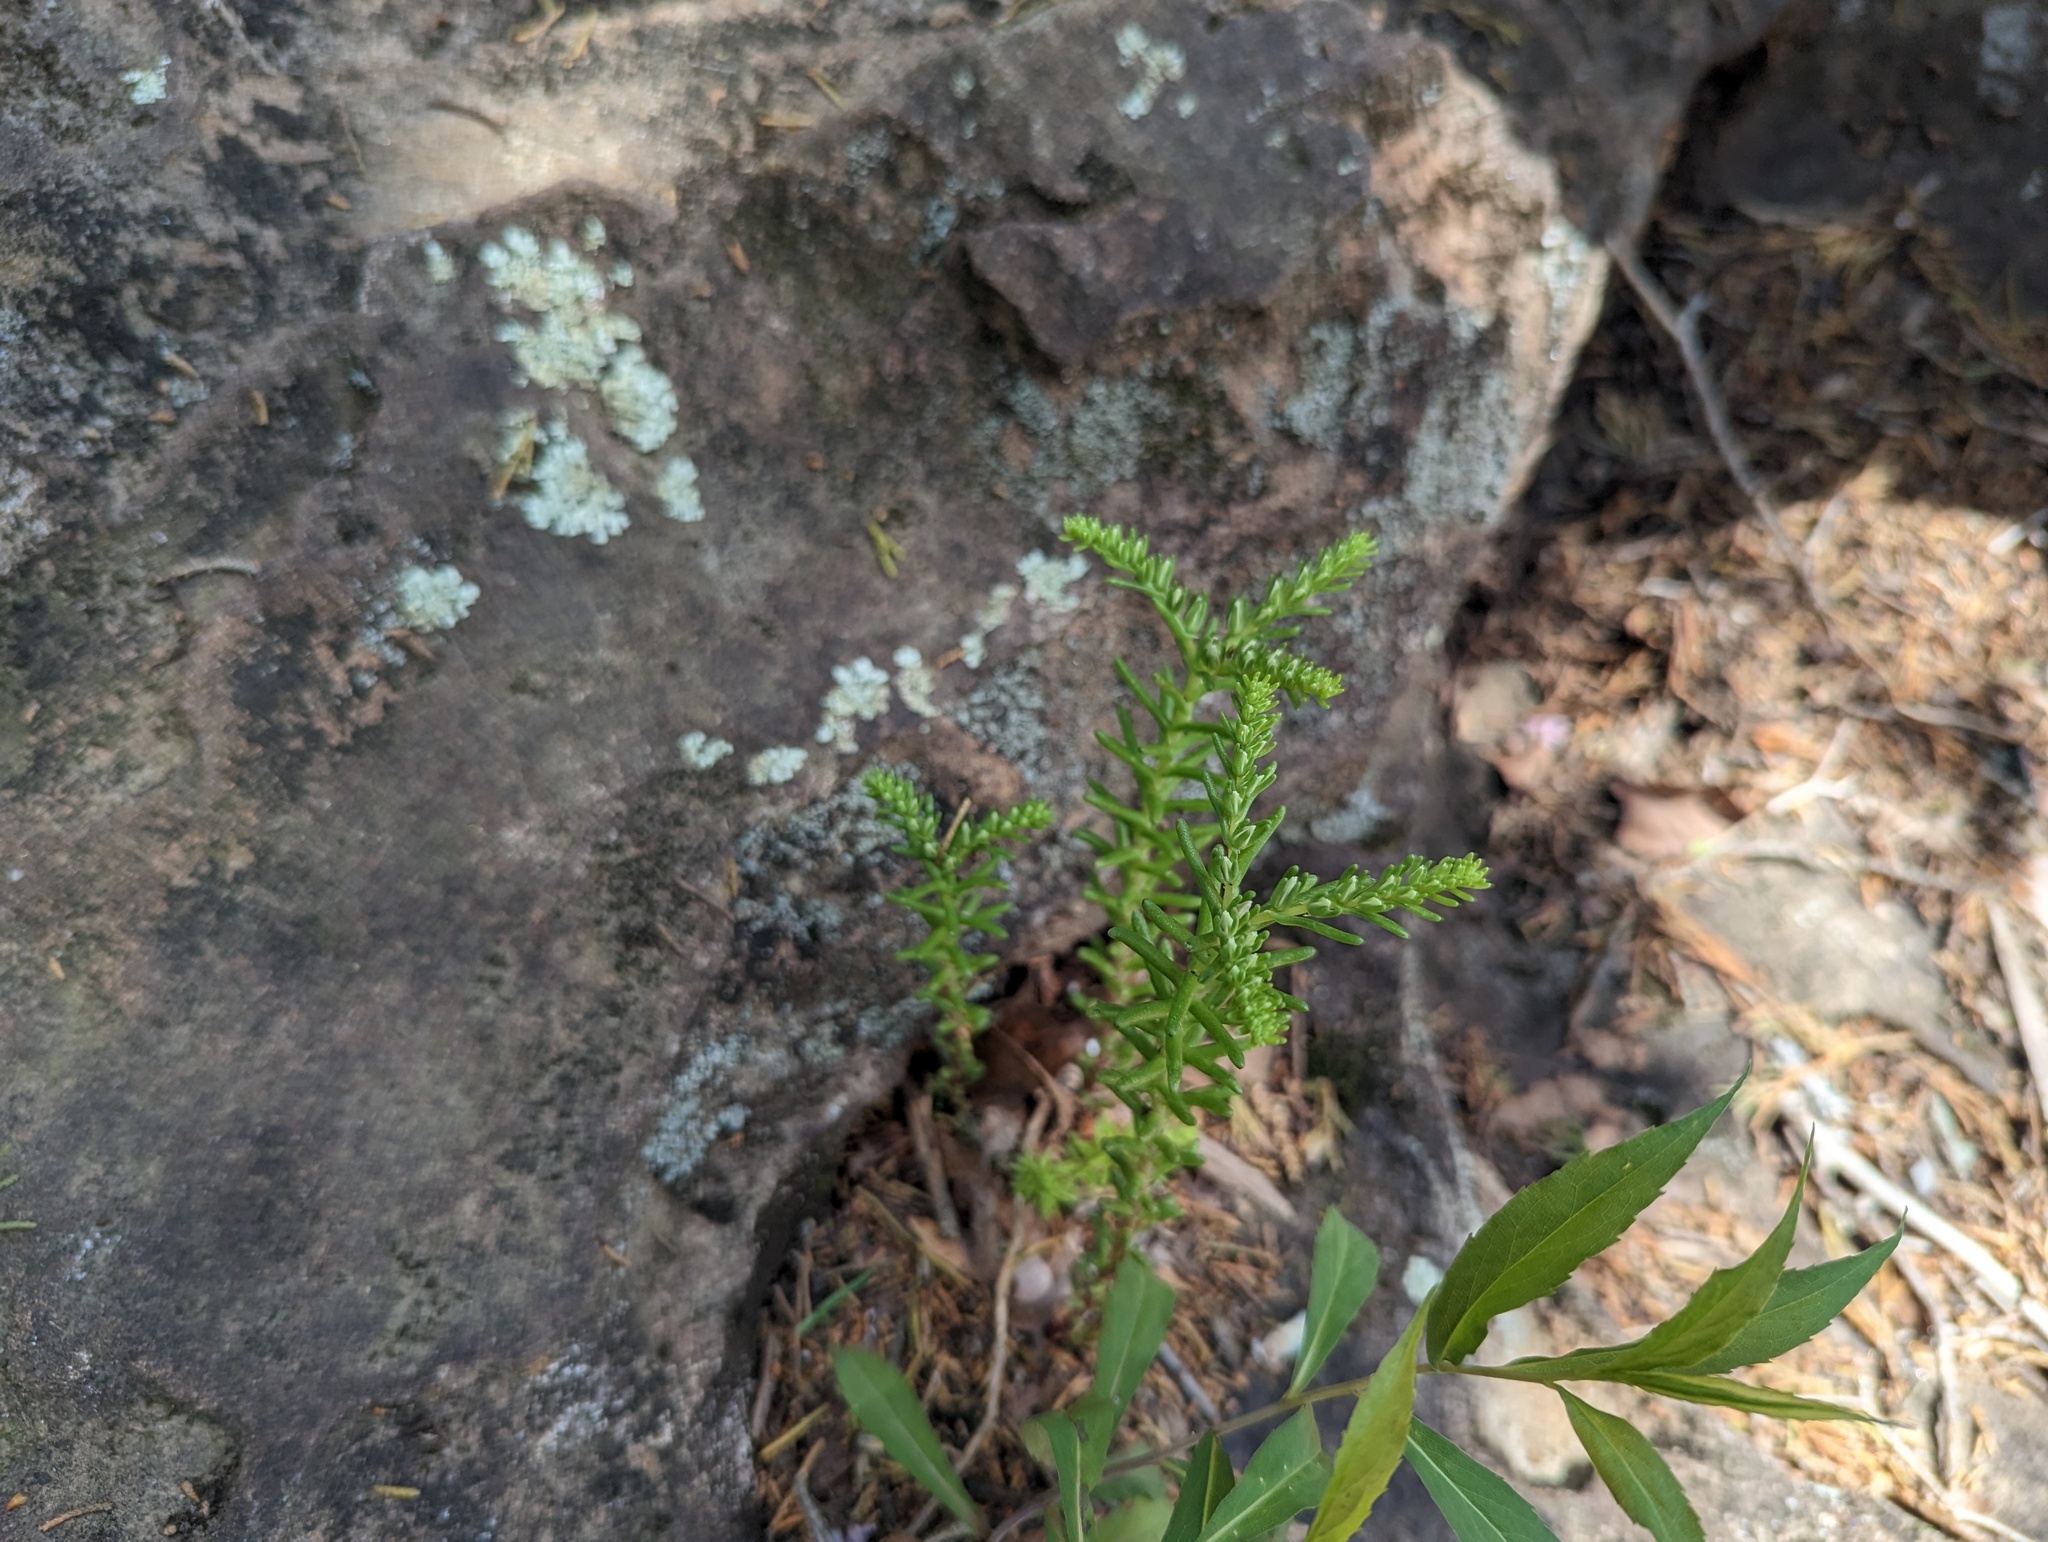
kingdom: Plantae
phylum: Tracheophyta
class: Magnoliopsida
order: Saxifragales
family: Crassulaceae
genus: Sedum
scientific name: Sedum pulchellum
